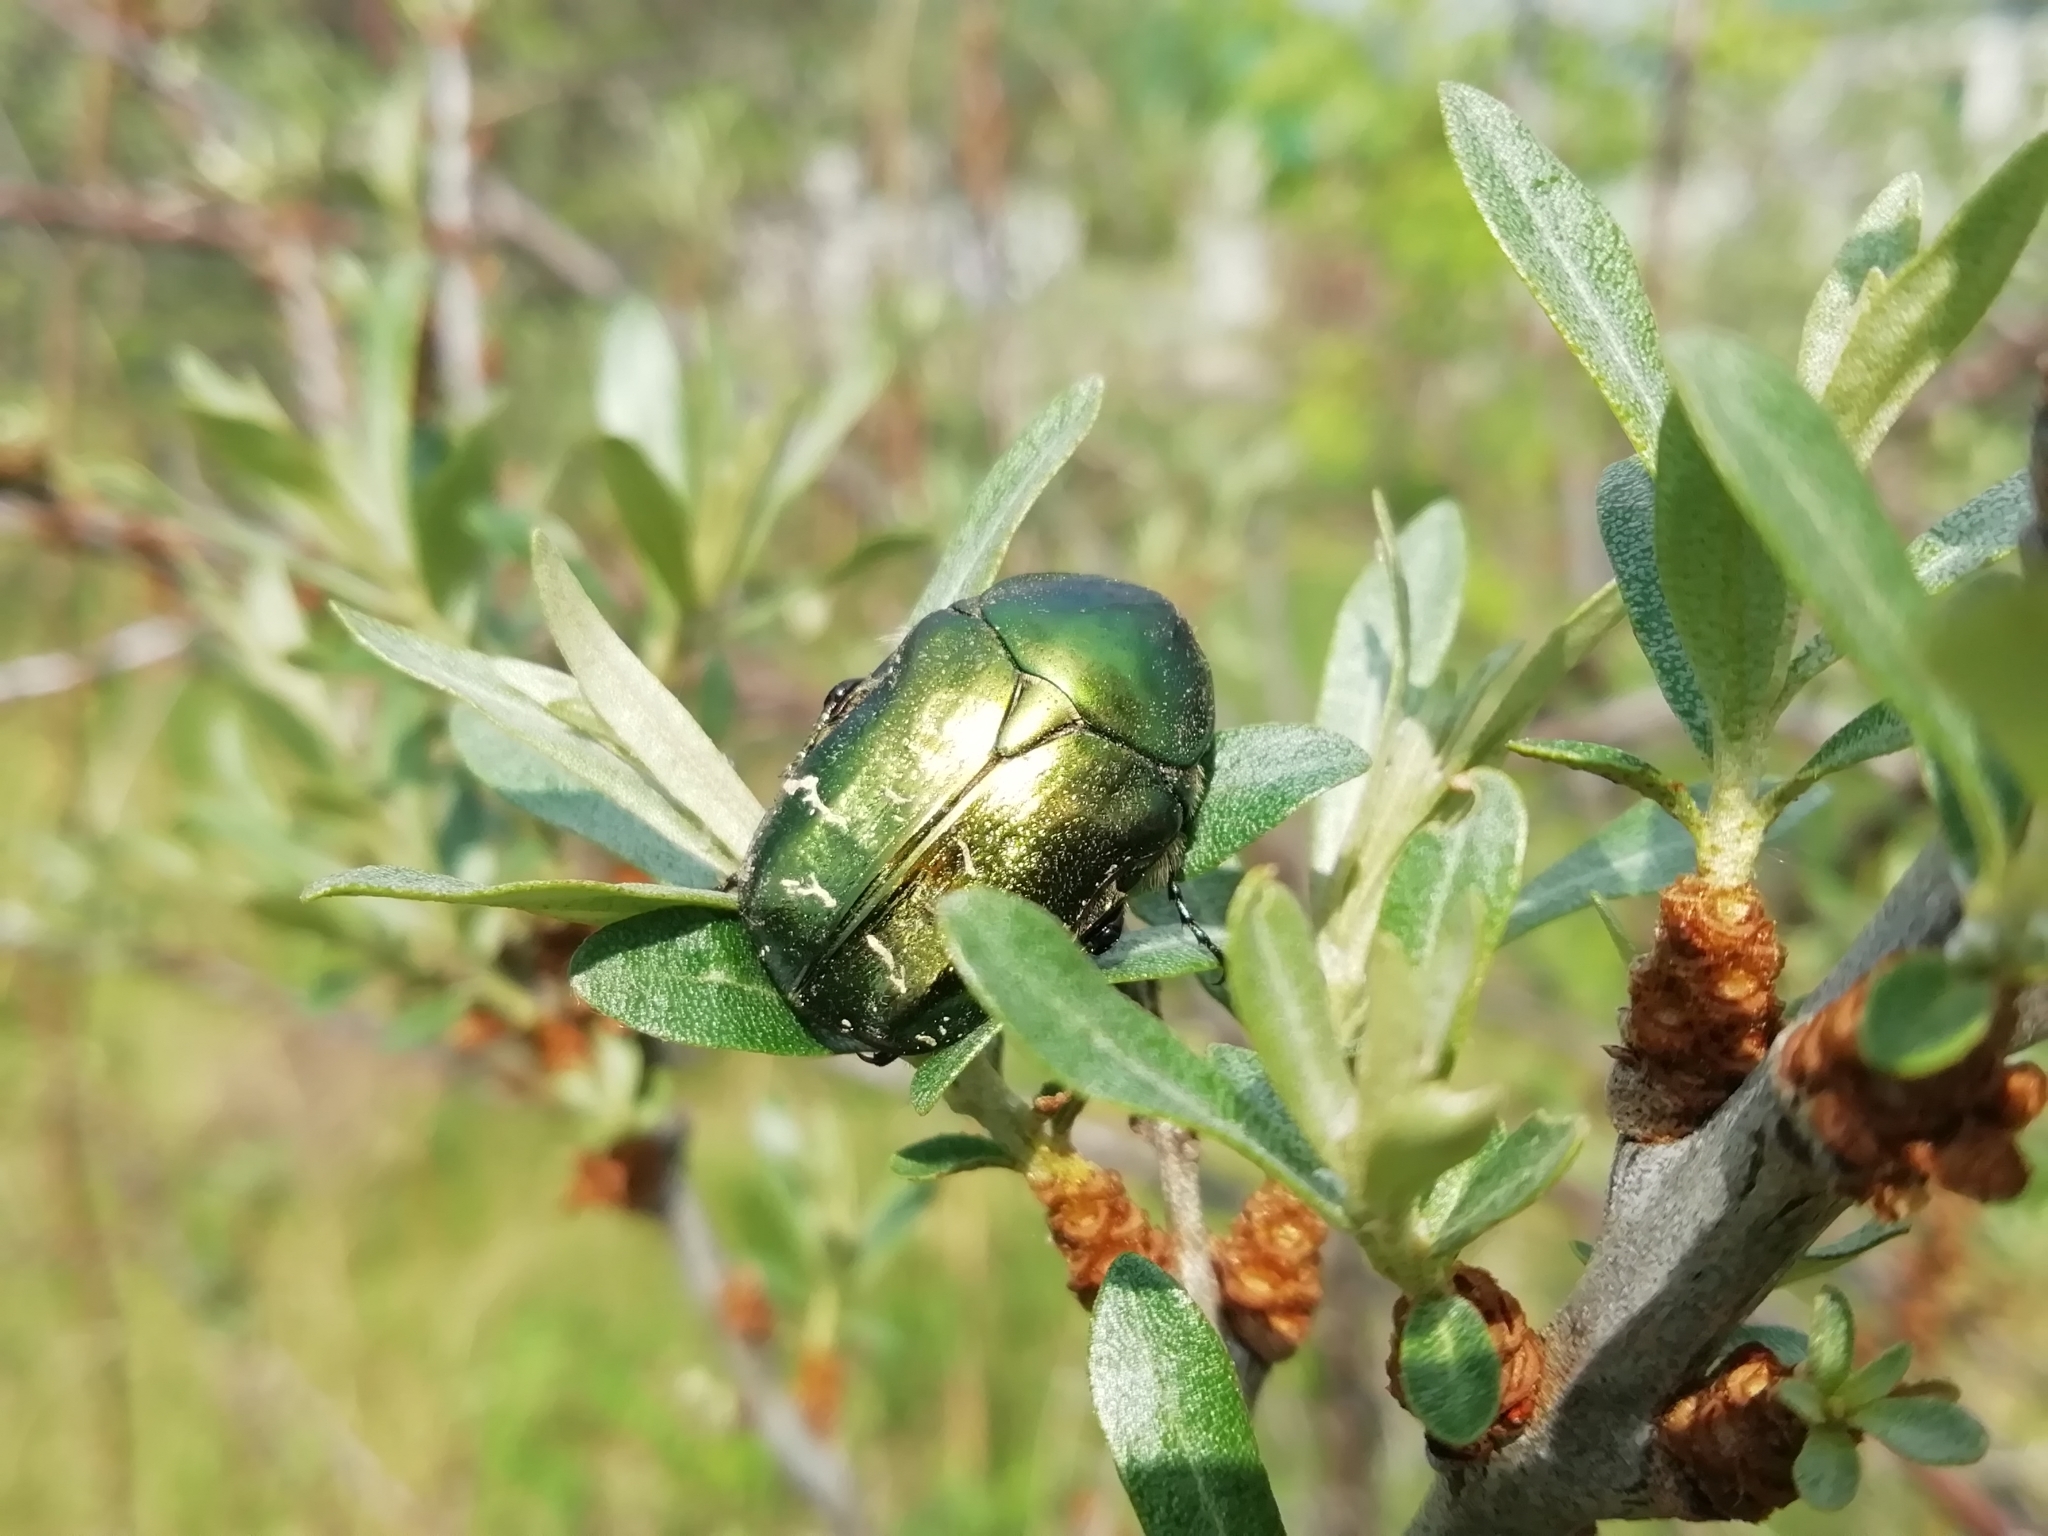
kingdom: Animalia
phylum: Arthropoda
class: Insecta
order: Coleoptera
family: Scarabaeidae
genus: Cetonia
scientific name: Cetonia aurata
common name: Rose chafer
